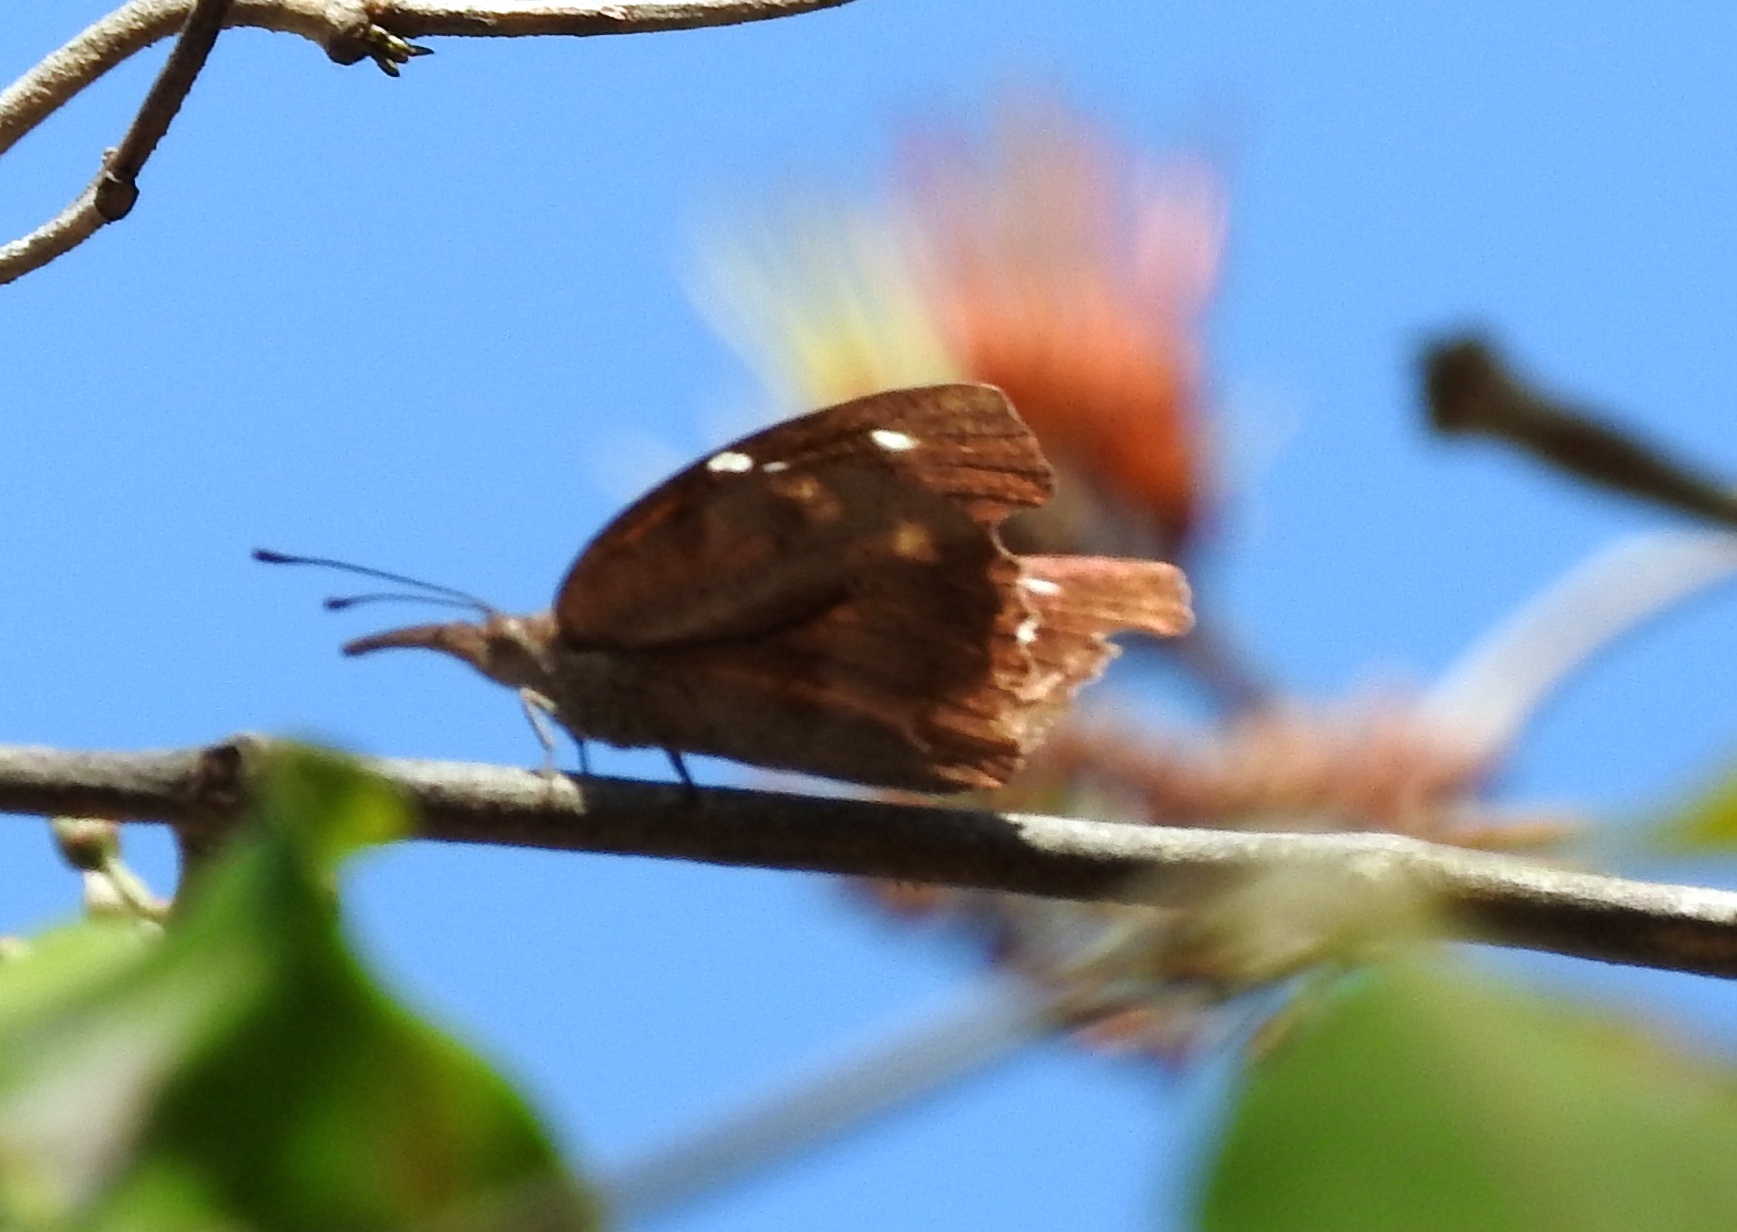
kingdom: Animalia
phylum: Arthropoda
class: Insecta
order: Lepidoptera
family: Nymphalidae
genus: Libytheana
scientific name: Libytheana carinenta
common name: American snout
